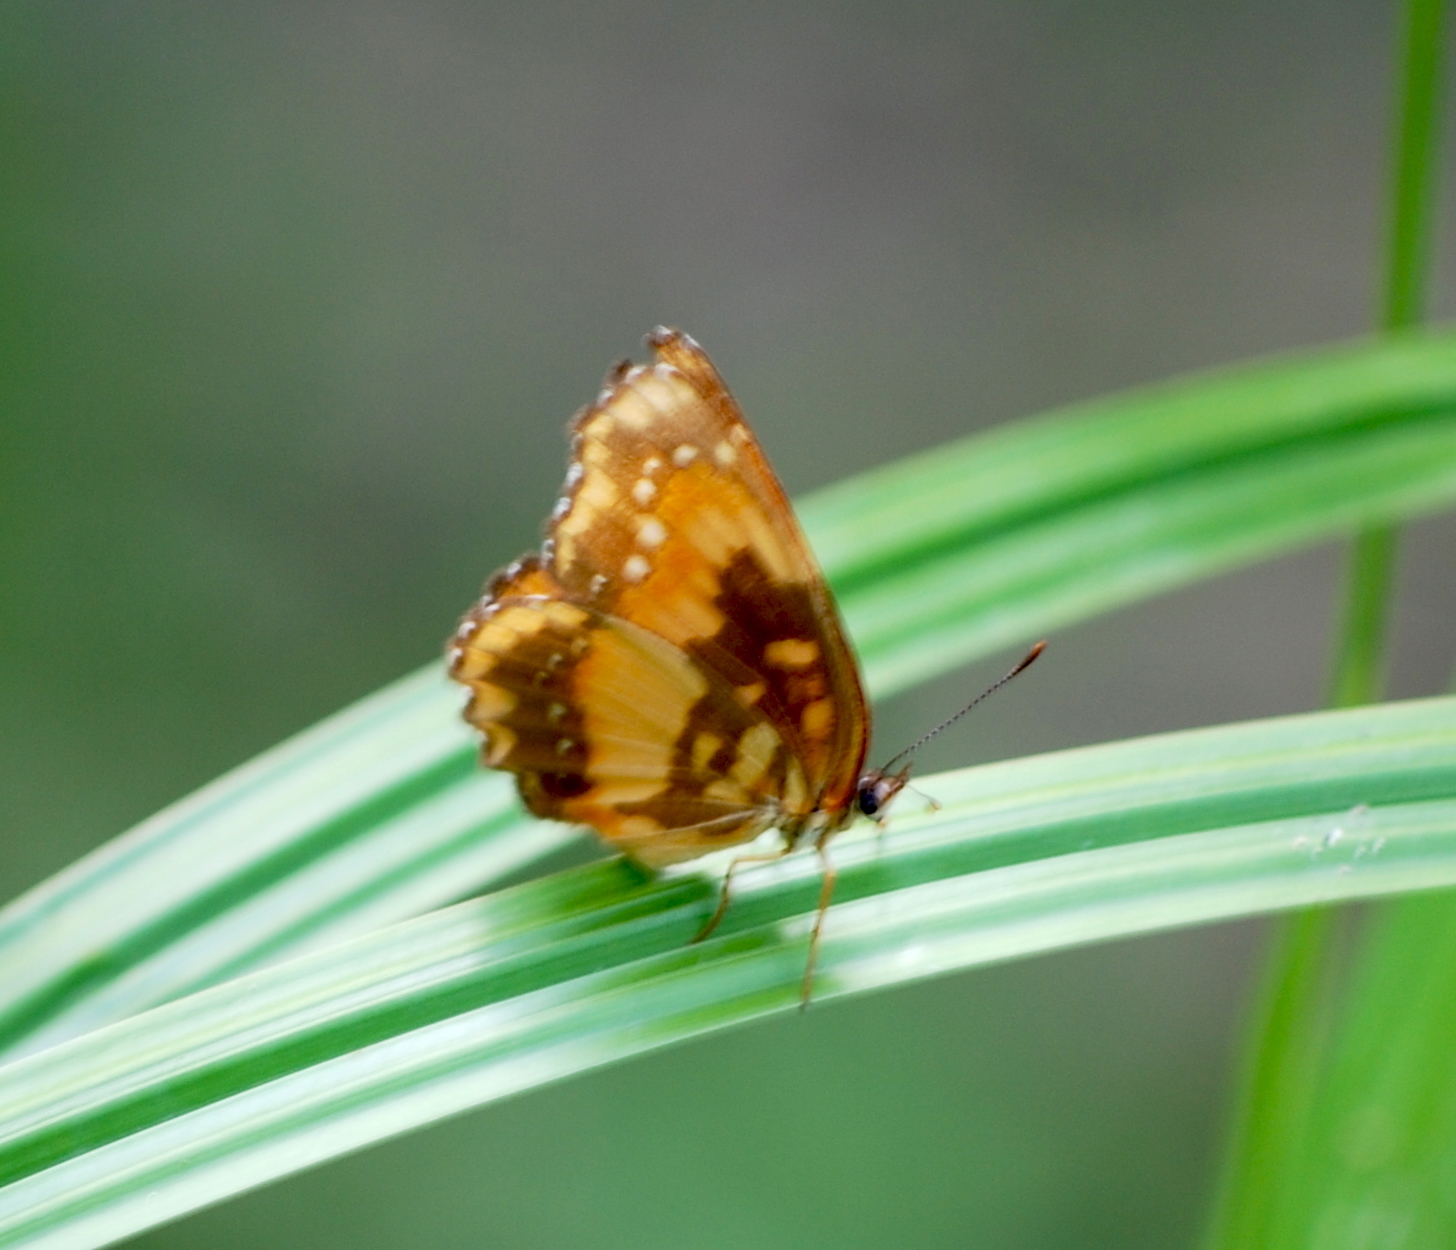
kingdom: Animalia
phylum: Arthropoda
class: Insecta
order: Lepidoptera
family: Nymphalidae
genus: Chlosyne
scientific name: Chlosyne lacinia
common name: Bordered patch
